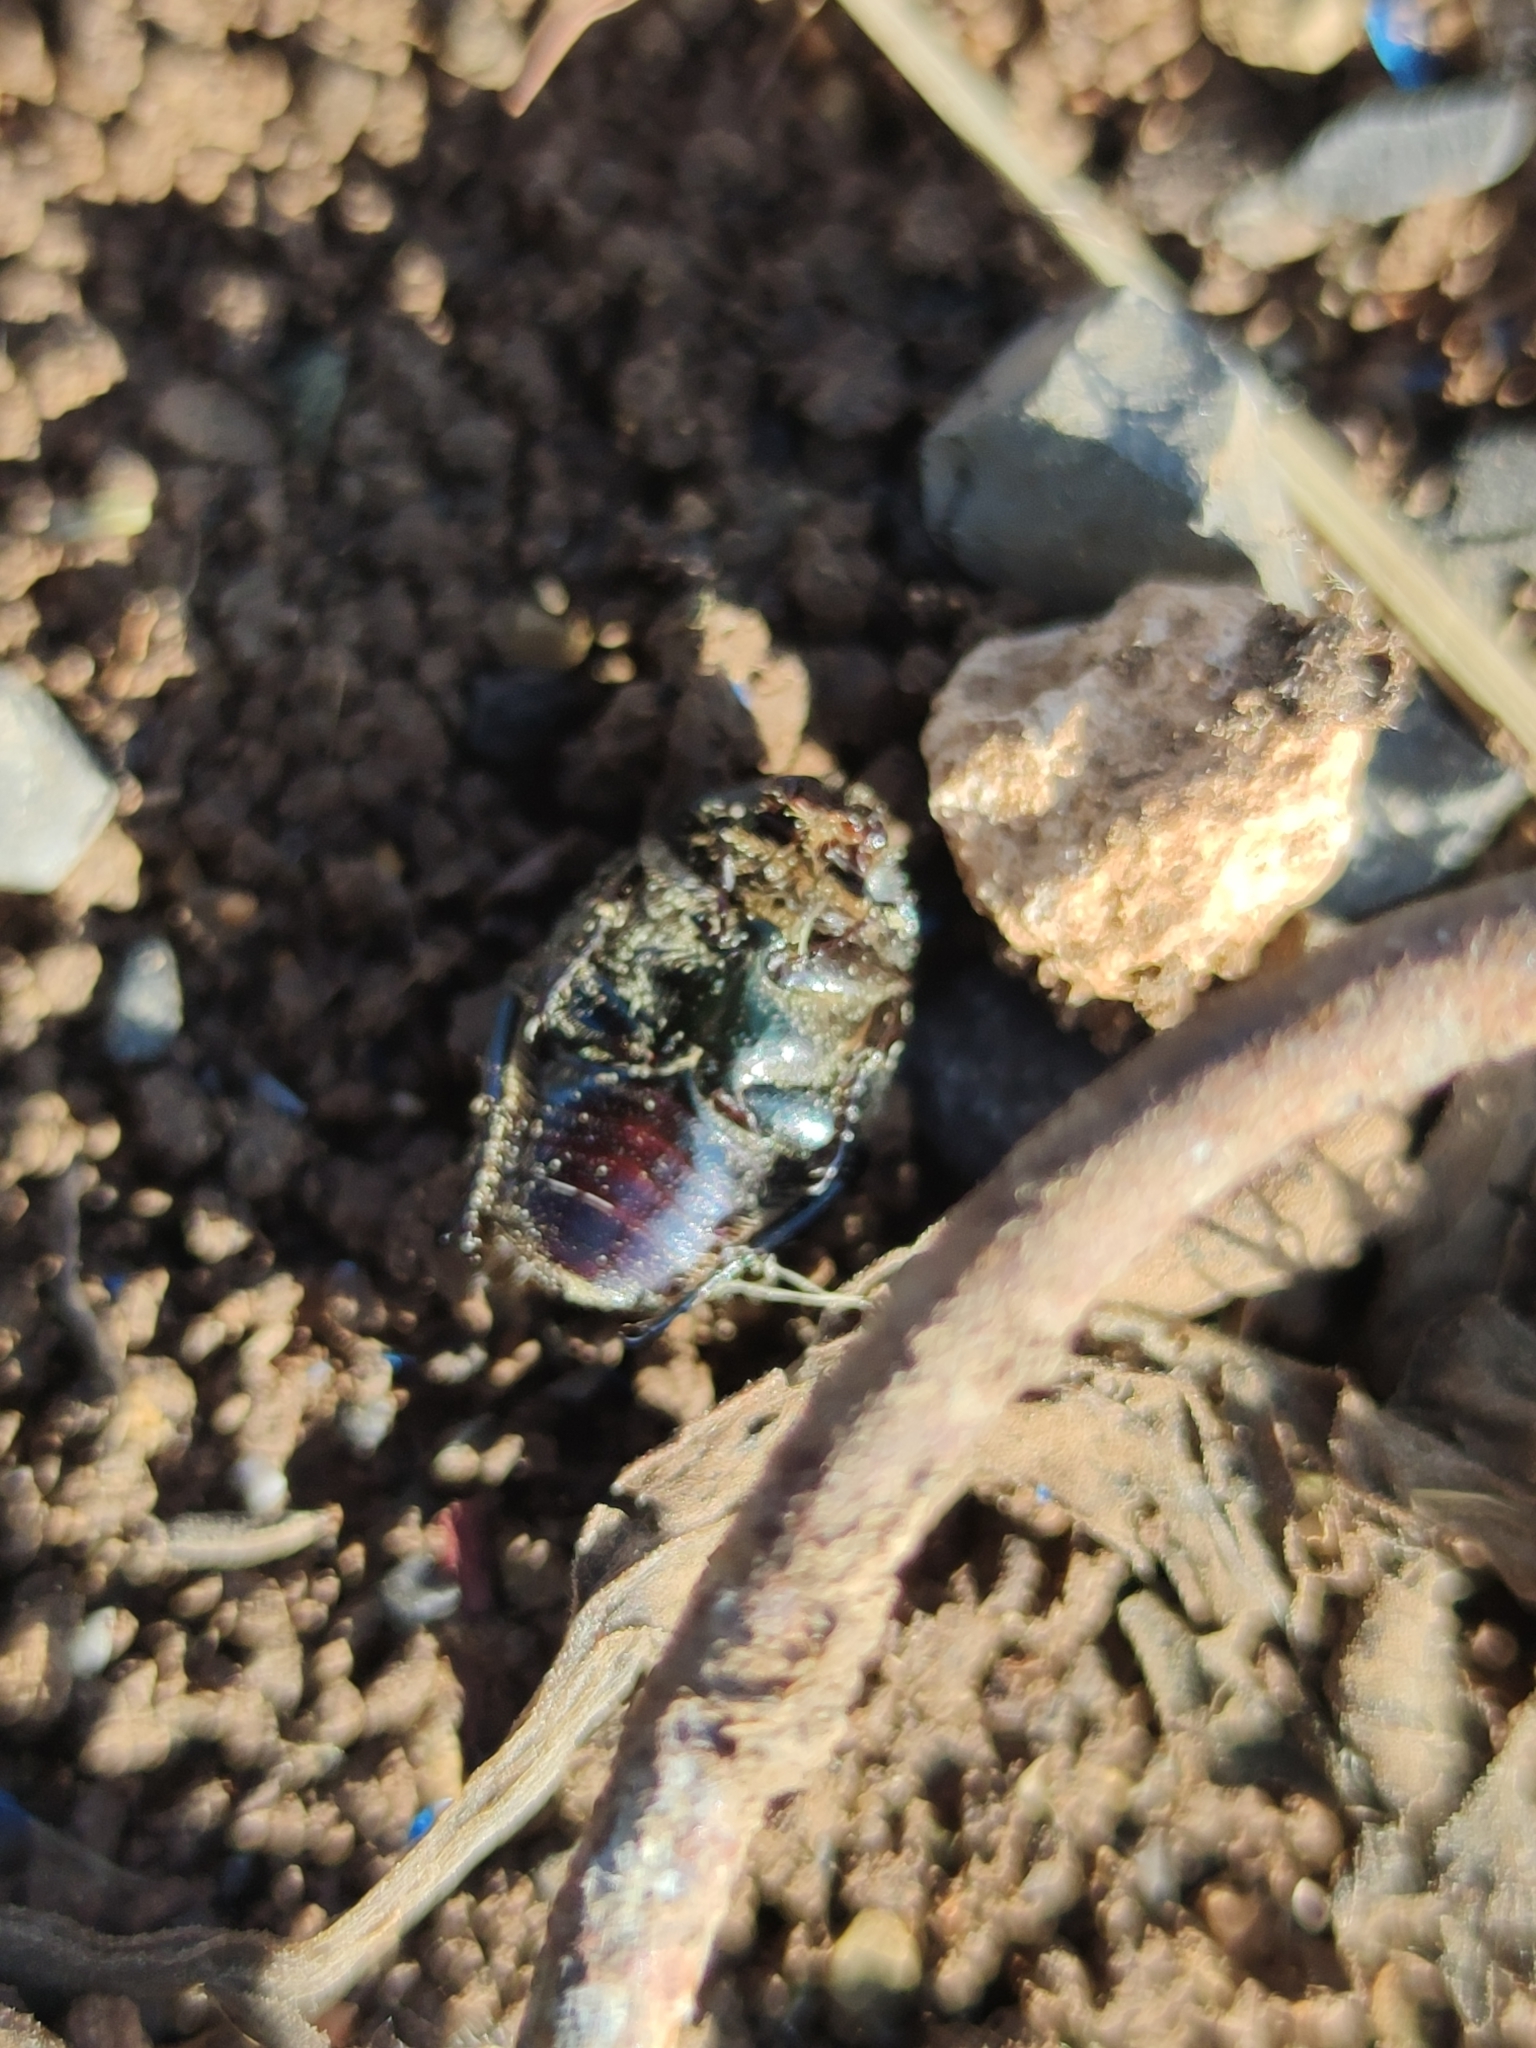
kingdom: Animalia
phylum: Arthropoda
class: Insecta
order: Coleoptera
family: Scarabaeidae
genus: Euphoria
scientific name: Euphoria sepulcralis
